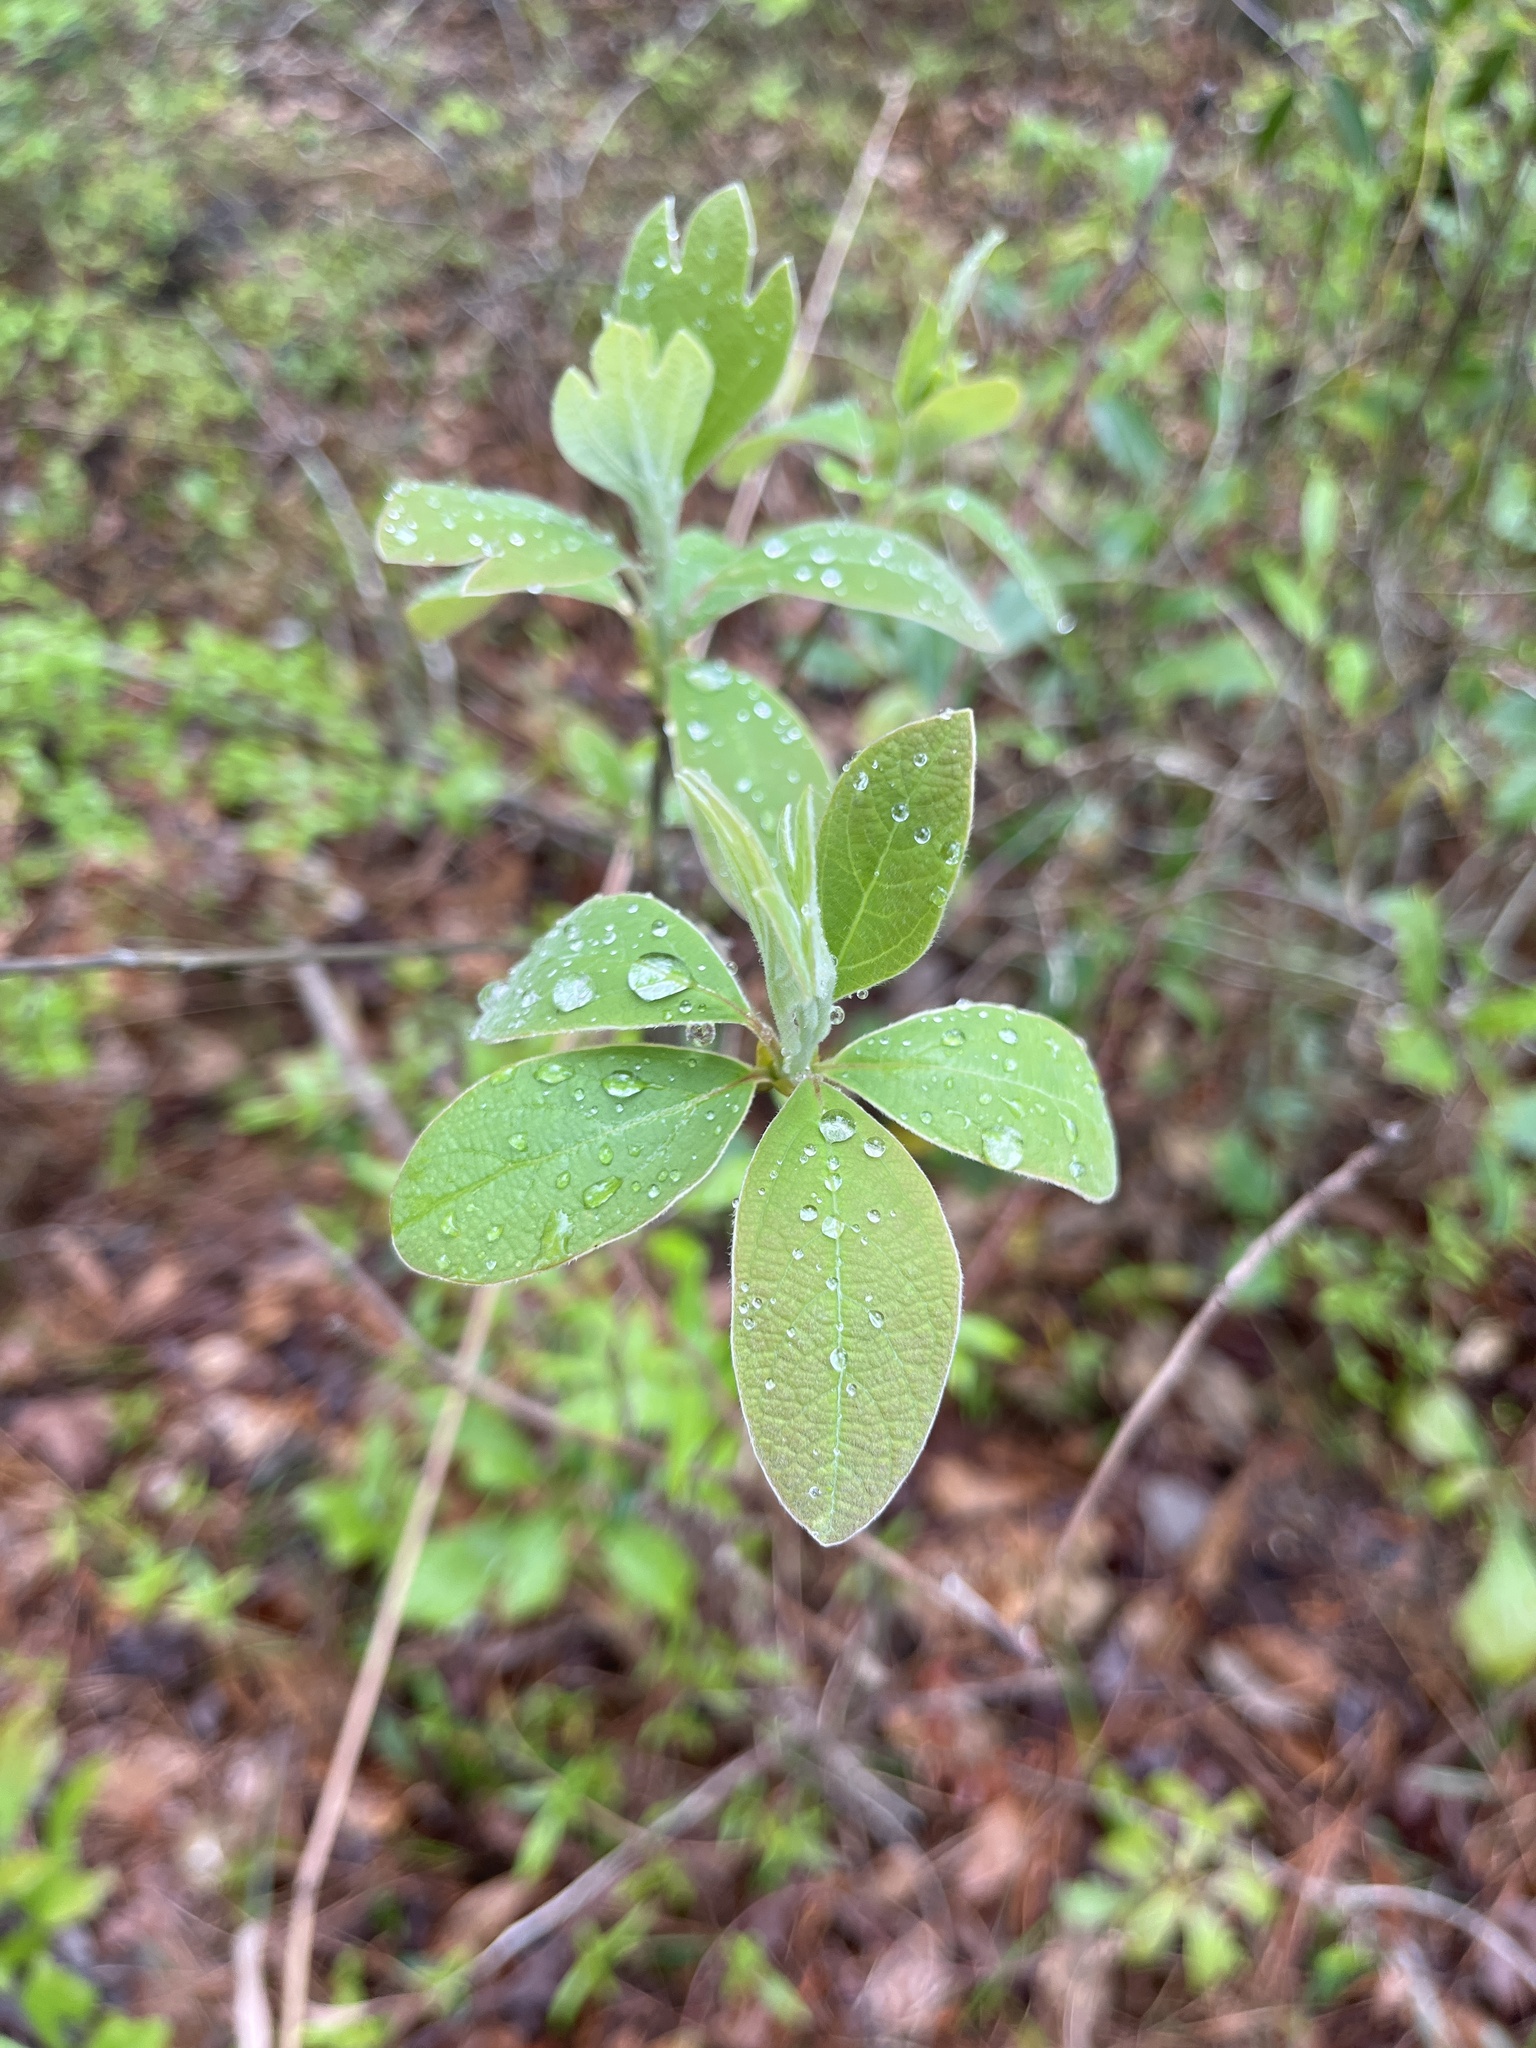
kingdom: Plantae
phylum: Tracheophyta
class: Magnoliopsida
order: Laurales
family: Lauraceae
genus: Sassafras
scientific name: Sassafras albidum
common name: Sassafras
